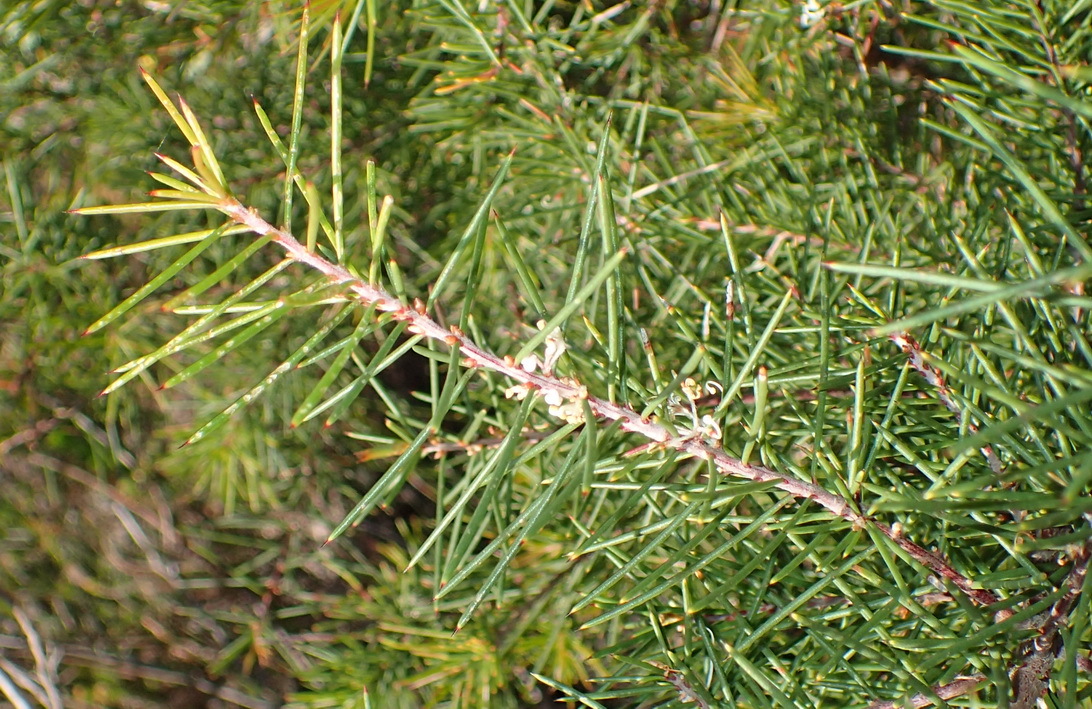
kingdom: Plantae
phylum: Tracheophyta
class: Magnoliopsida
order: Proteales
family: Proteaceae
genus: Hakea
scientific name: Hakea sericea
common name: Needle bush
